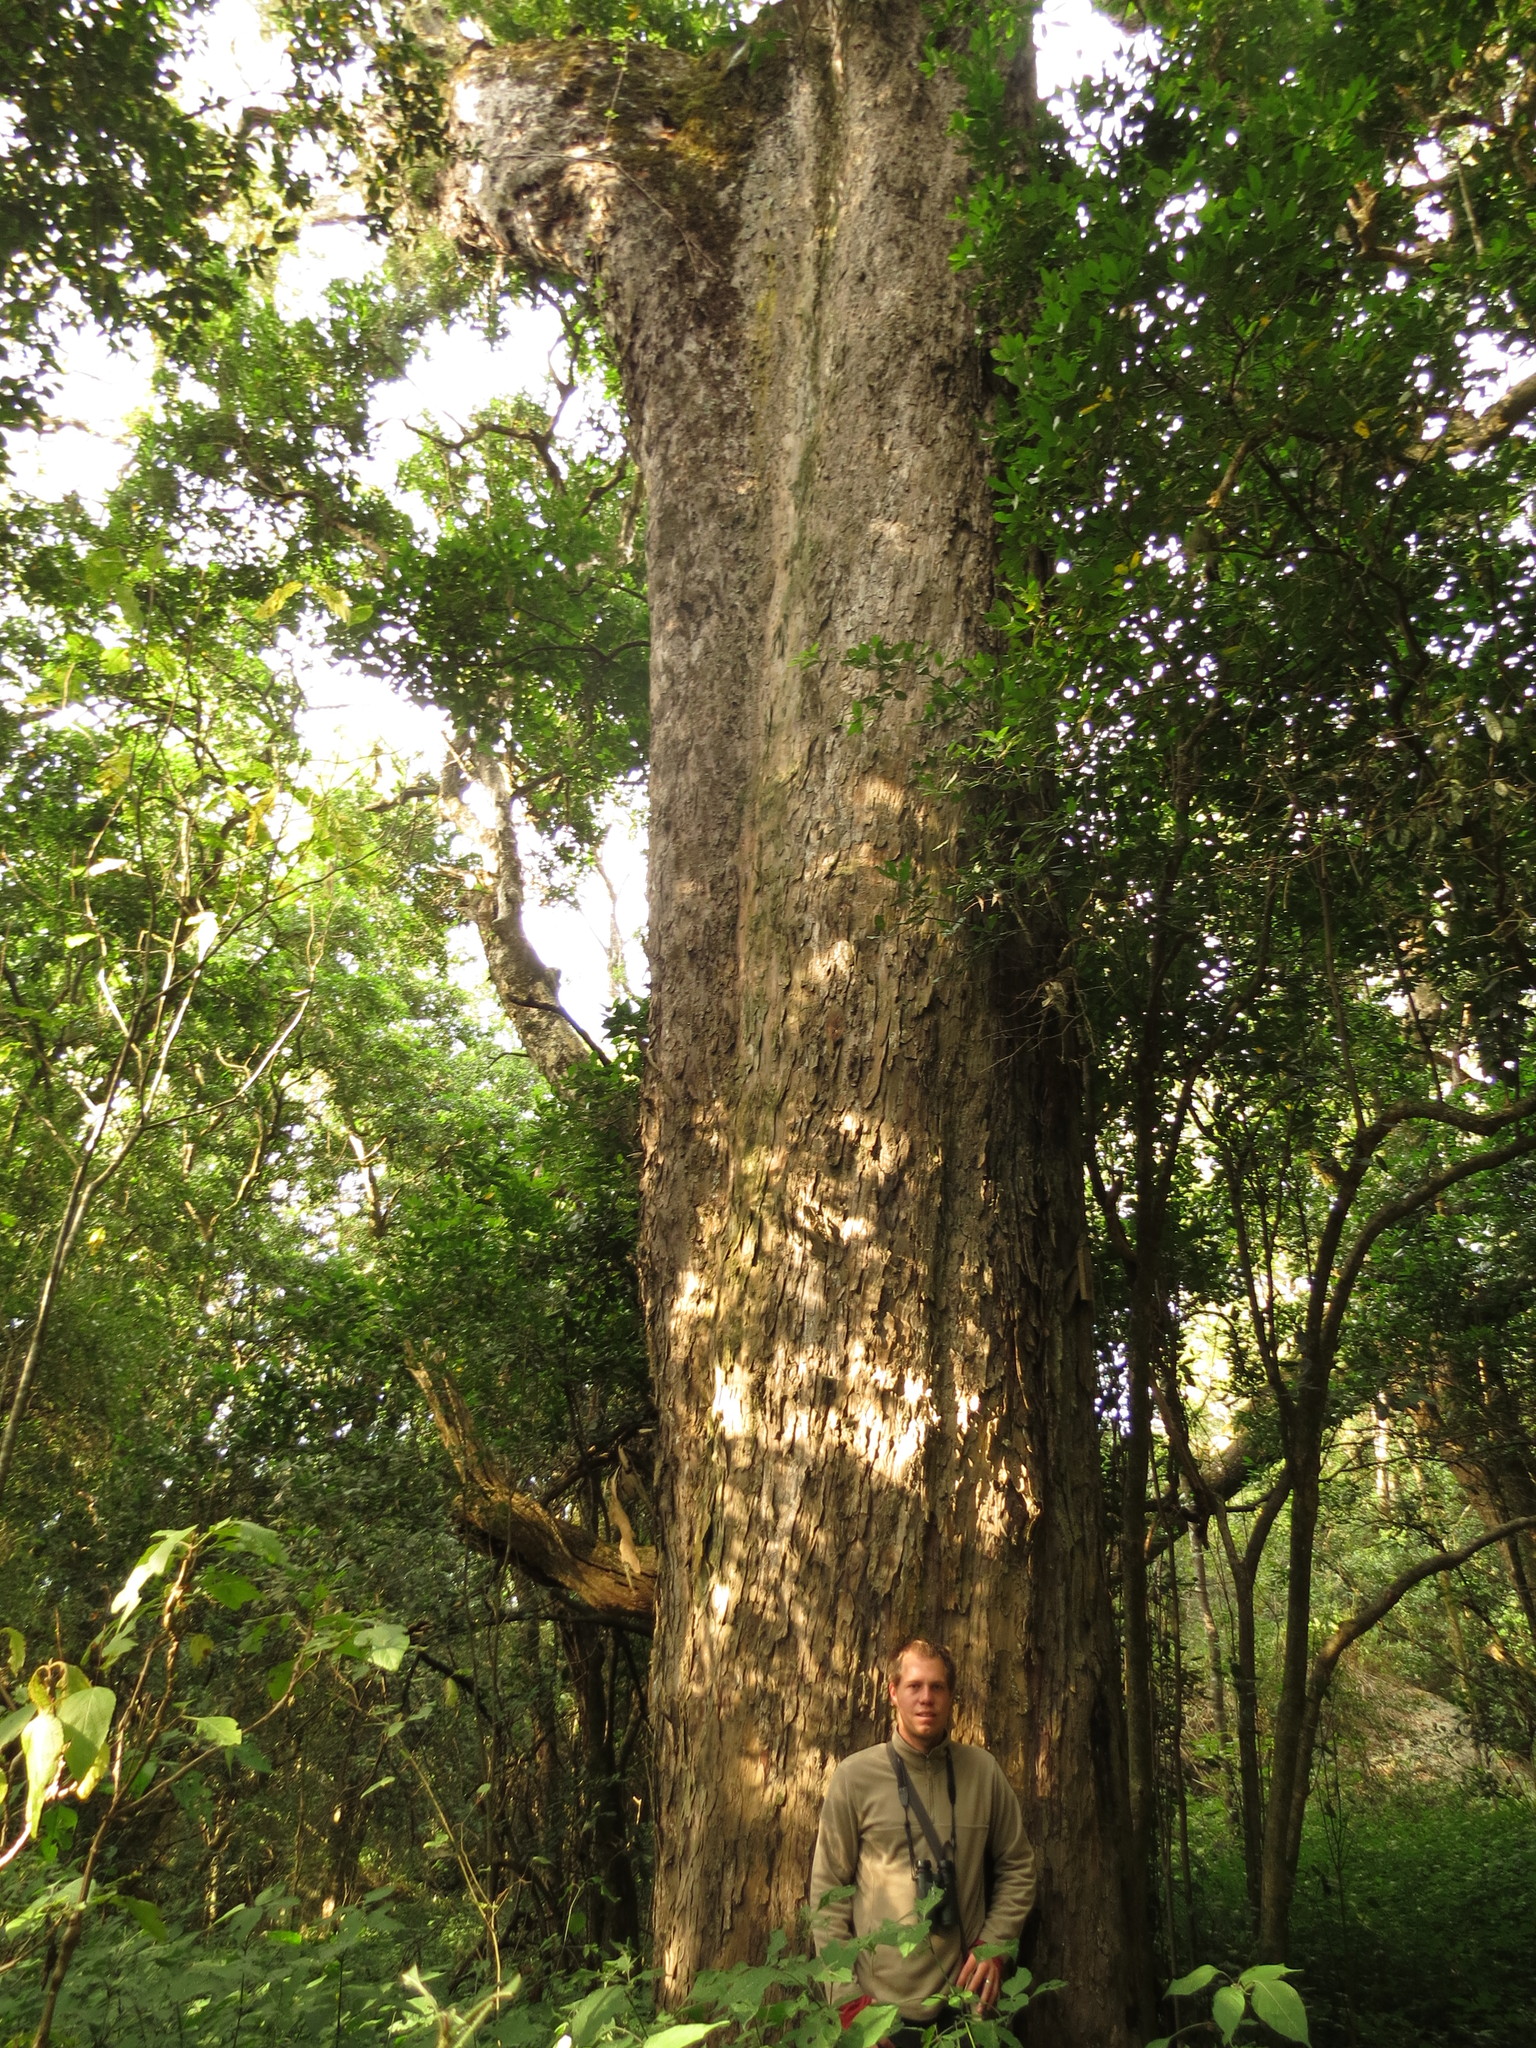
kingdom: Plantae
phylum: Tracheophyta
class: Pinopsida
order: Pinales
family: Podocarpaceae
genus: Afrocarpus
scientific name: Afrocarpus falcatus
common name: Bastard yellowwood
